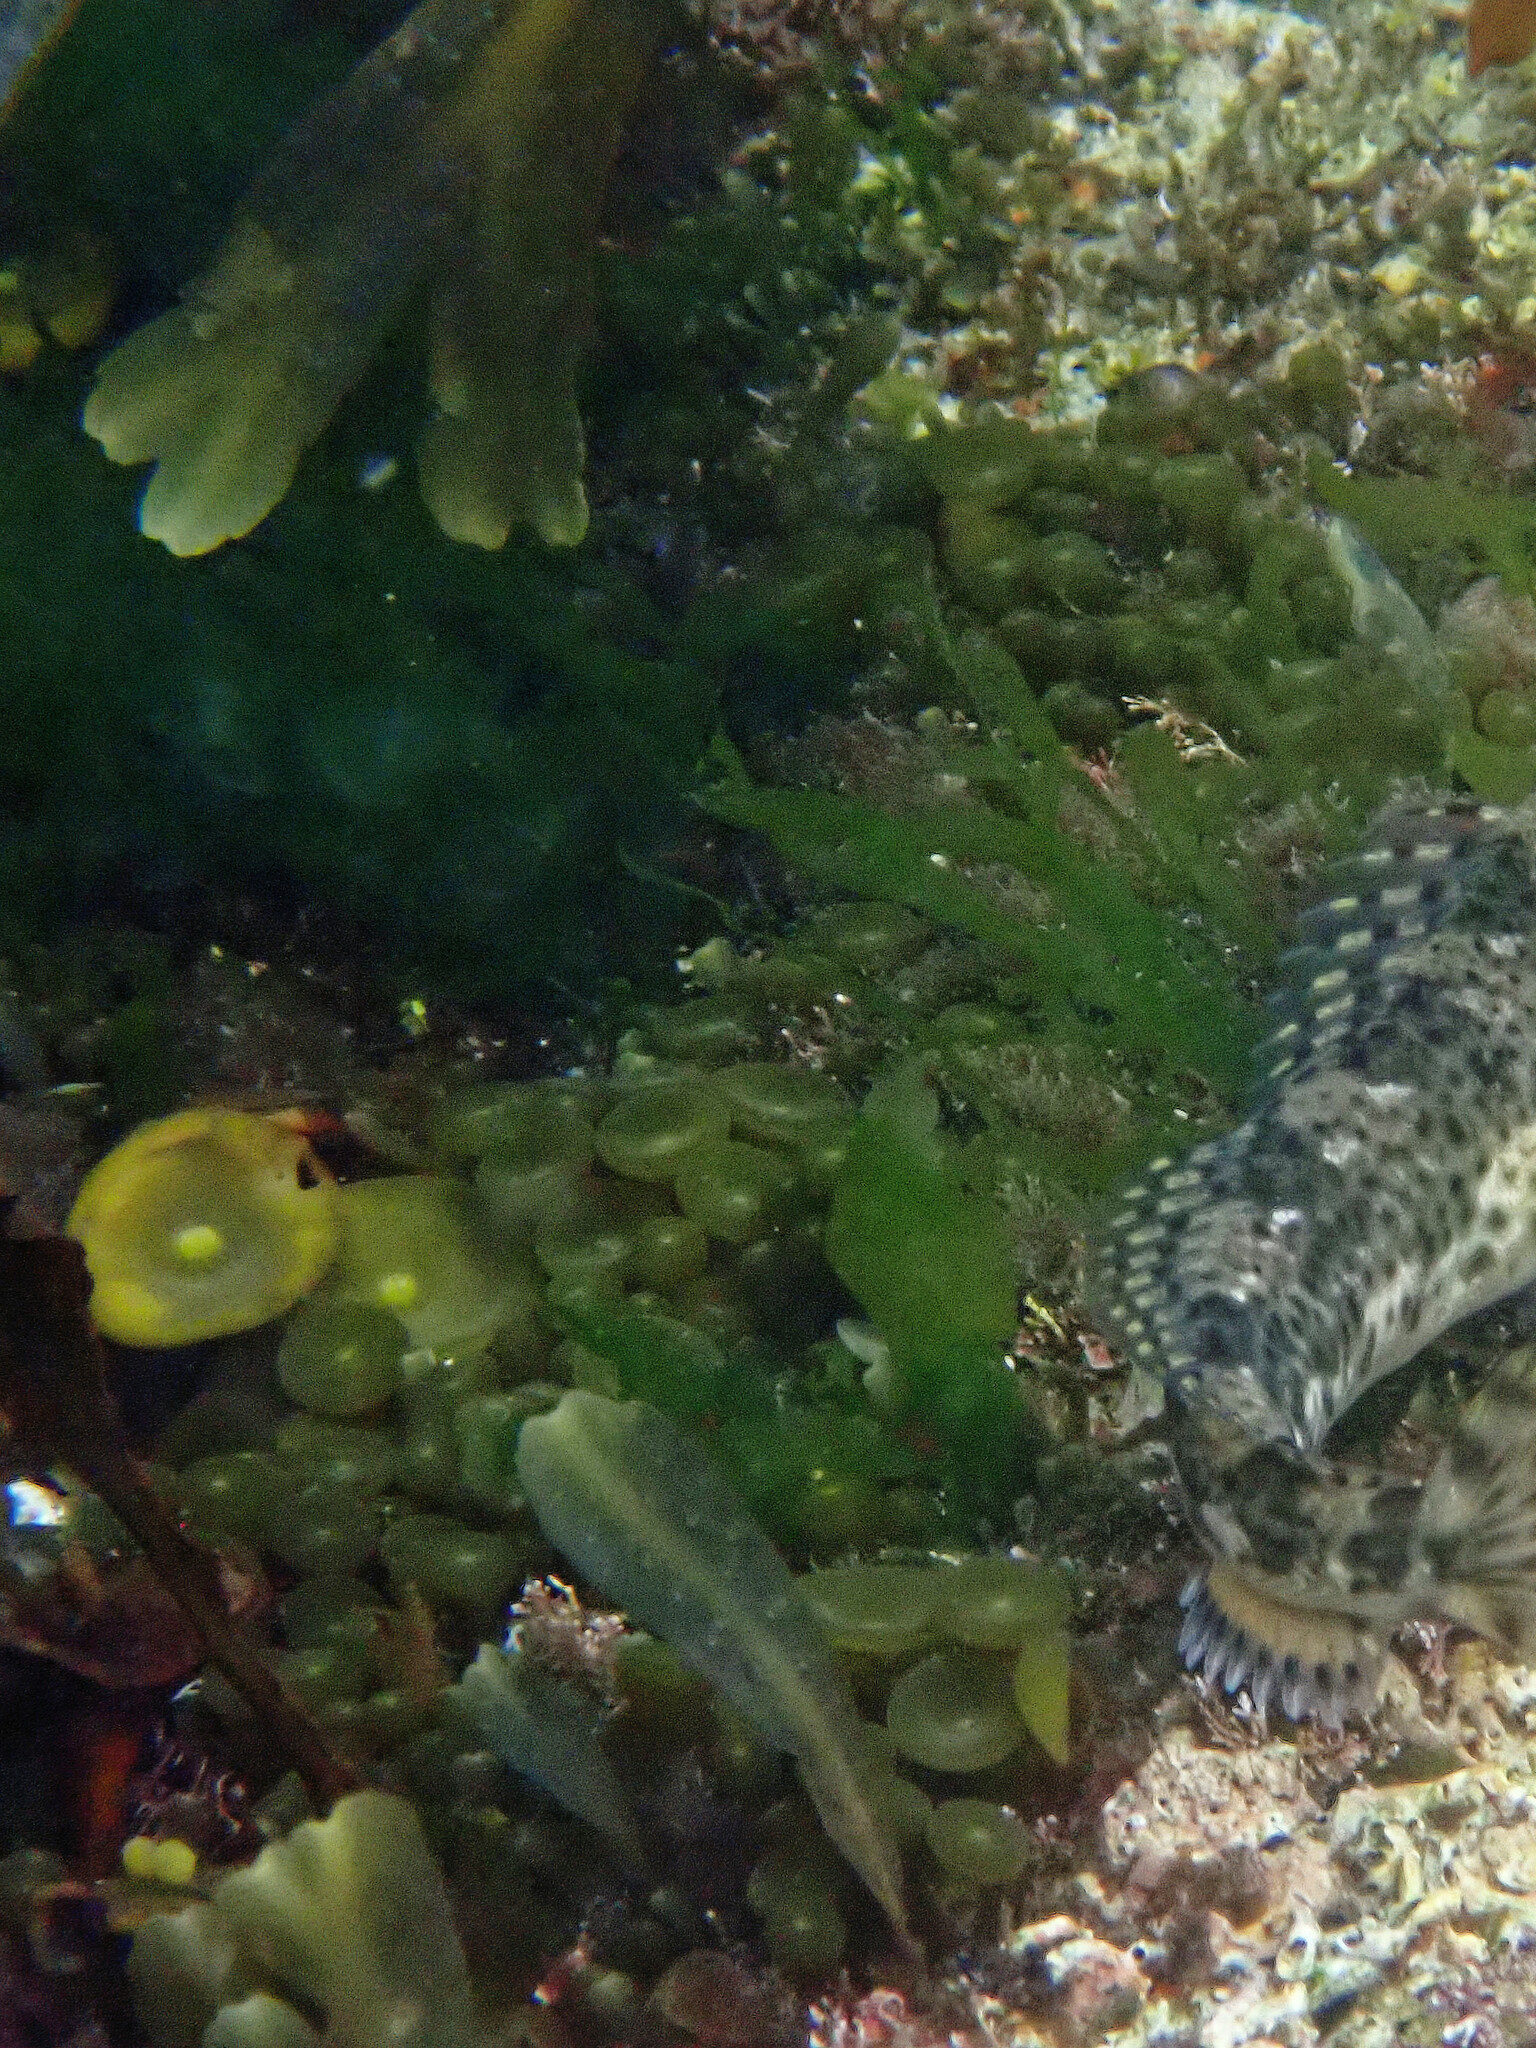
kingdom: Chromista
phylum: Ochrophyta
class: Phaeophyceae
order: Fucales
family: Himanthaliaceae
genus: Himanthalia
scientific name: Himanthalia elongata
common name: Sea-thong
